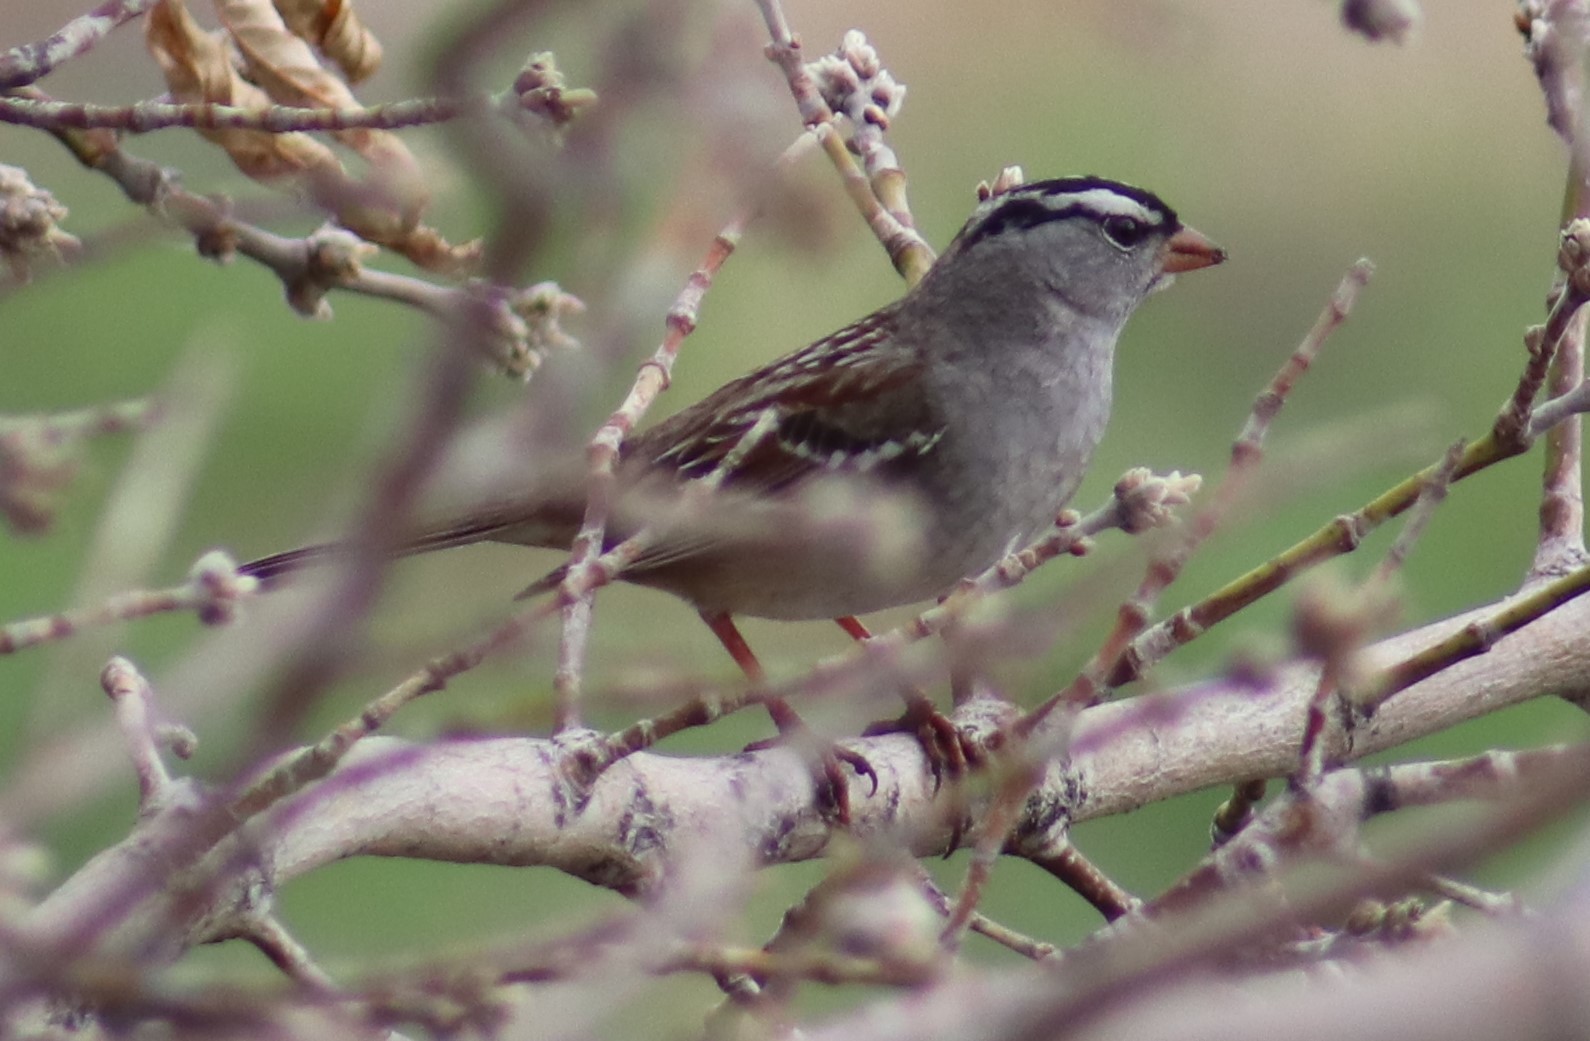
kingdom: Animalia
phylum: Chordata
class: Aves
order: Passeriformes
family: Passerellidae
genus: Zonotrichia
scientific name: Zonotrichia leucophrys
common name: White-crowned sparrow
